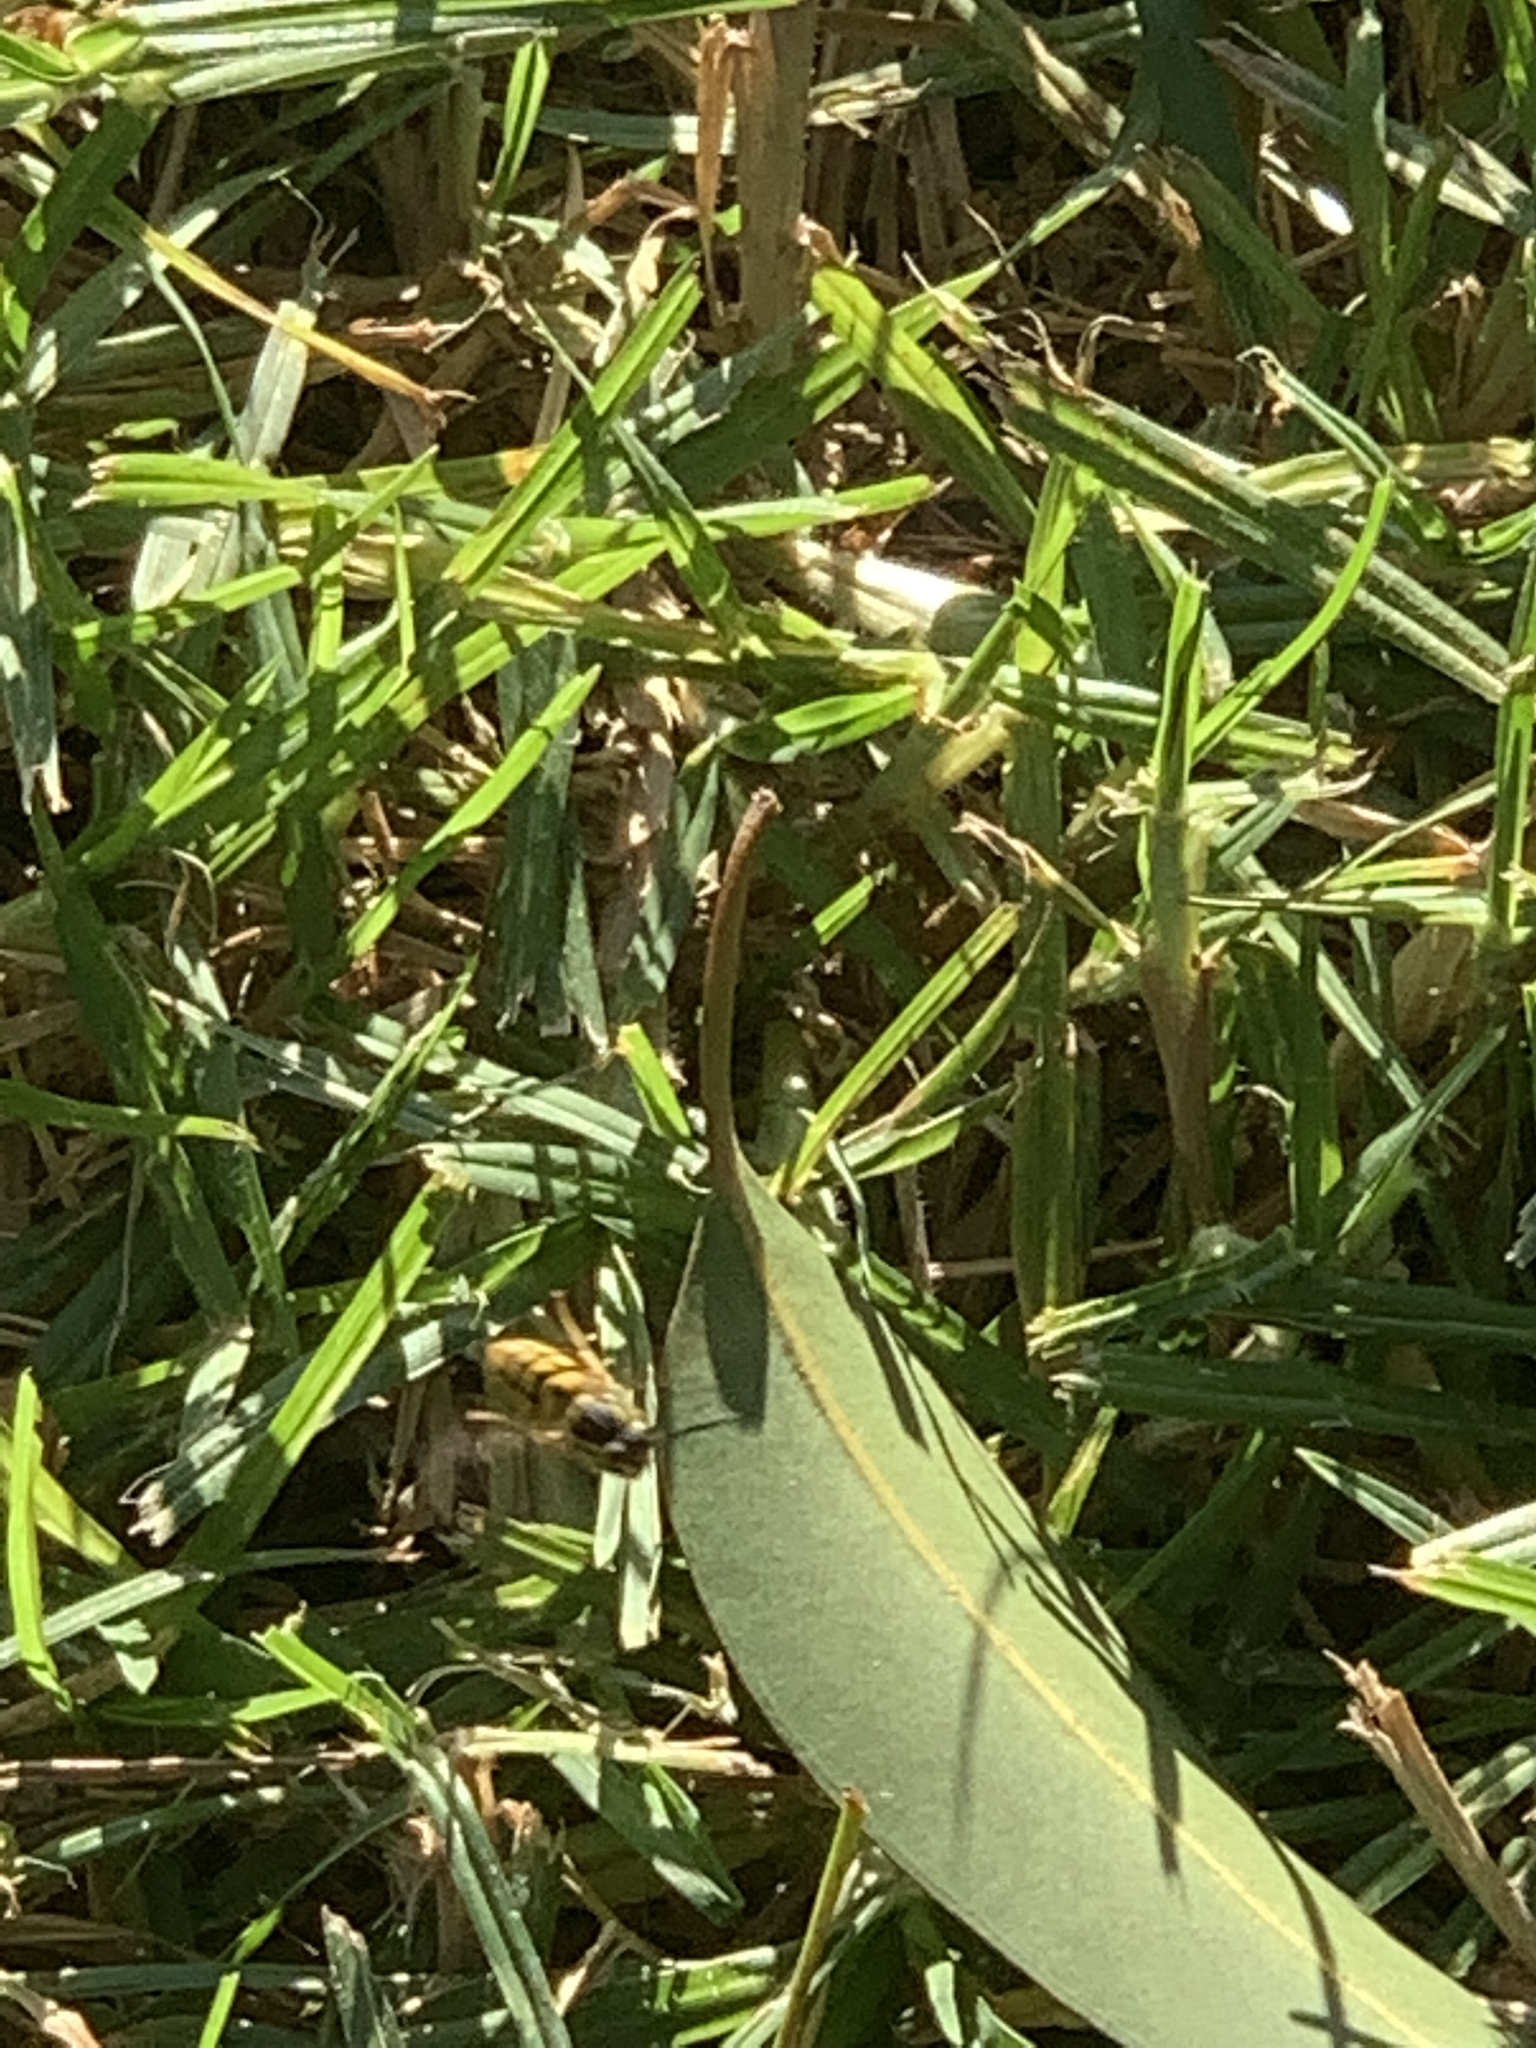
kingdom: Animalia
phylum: Arthropoda
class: Insecta
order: Hymenoptera
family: Vespidae
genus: Vespula
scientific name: Vespula pensylvanica
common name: Western yellowjacket
